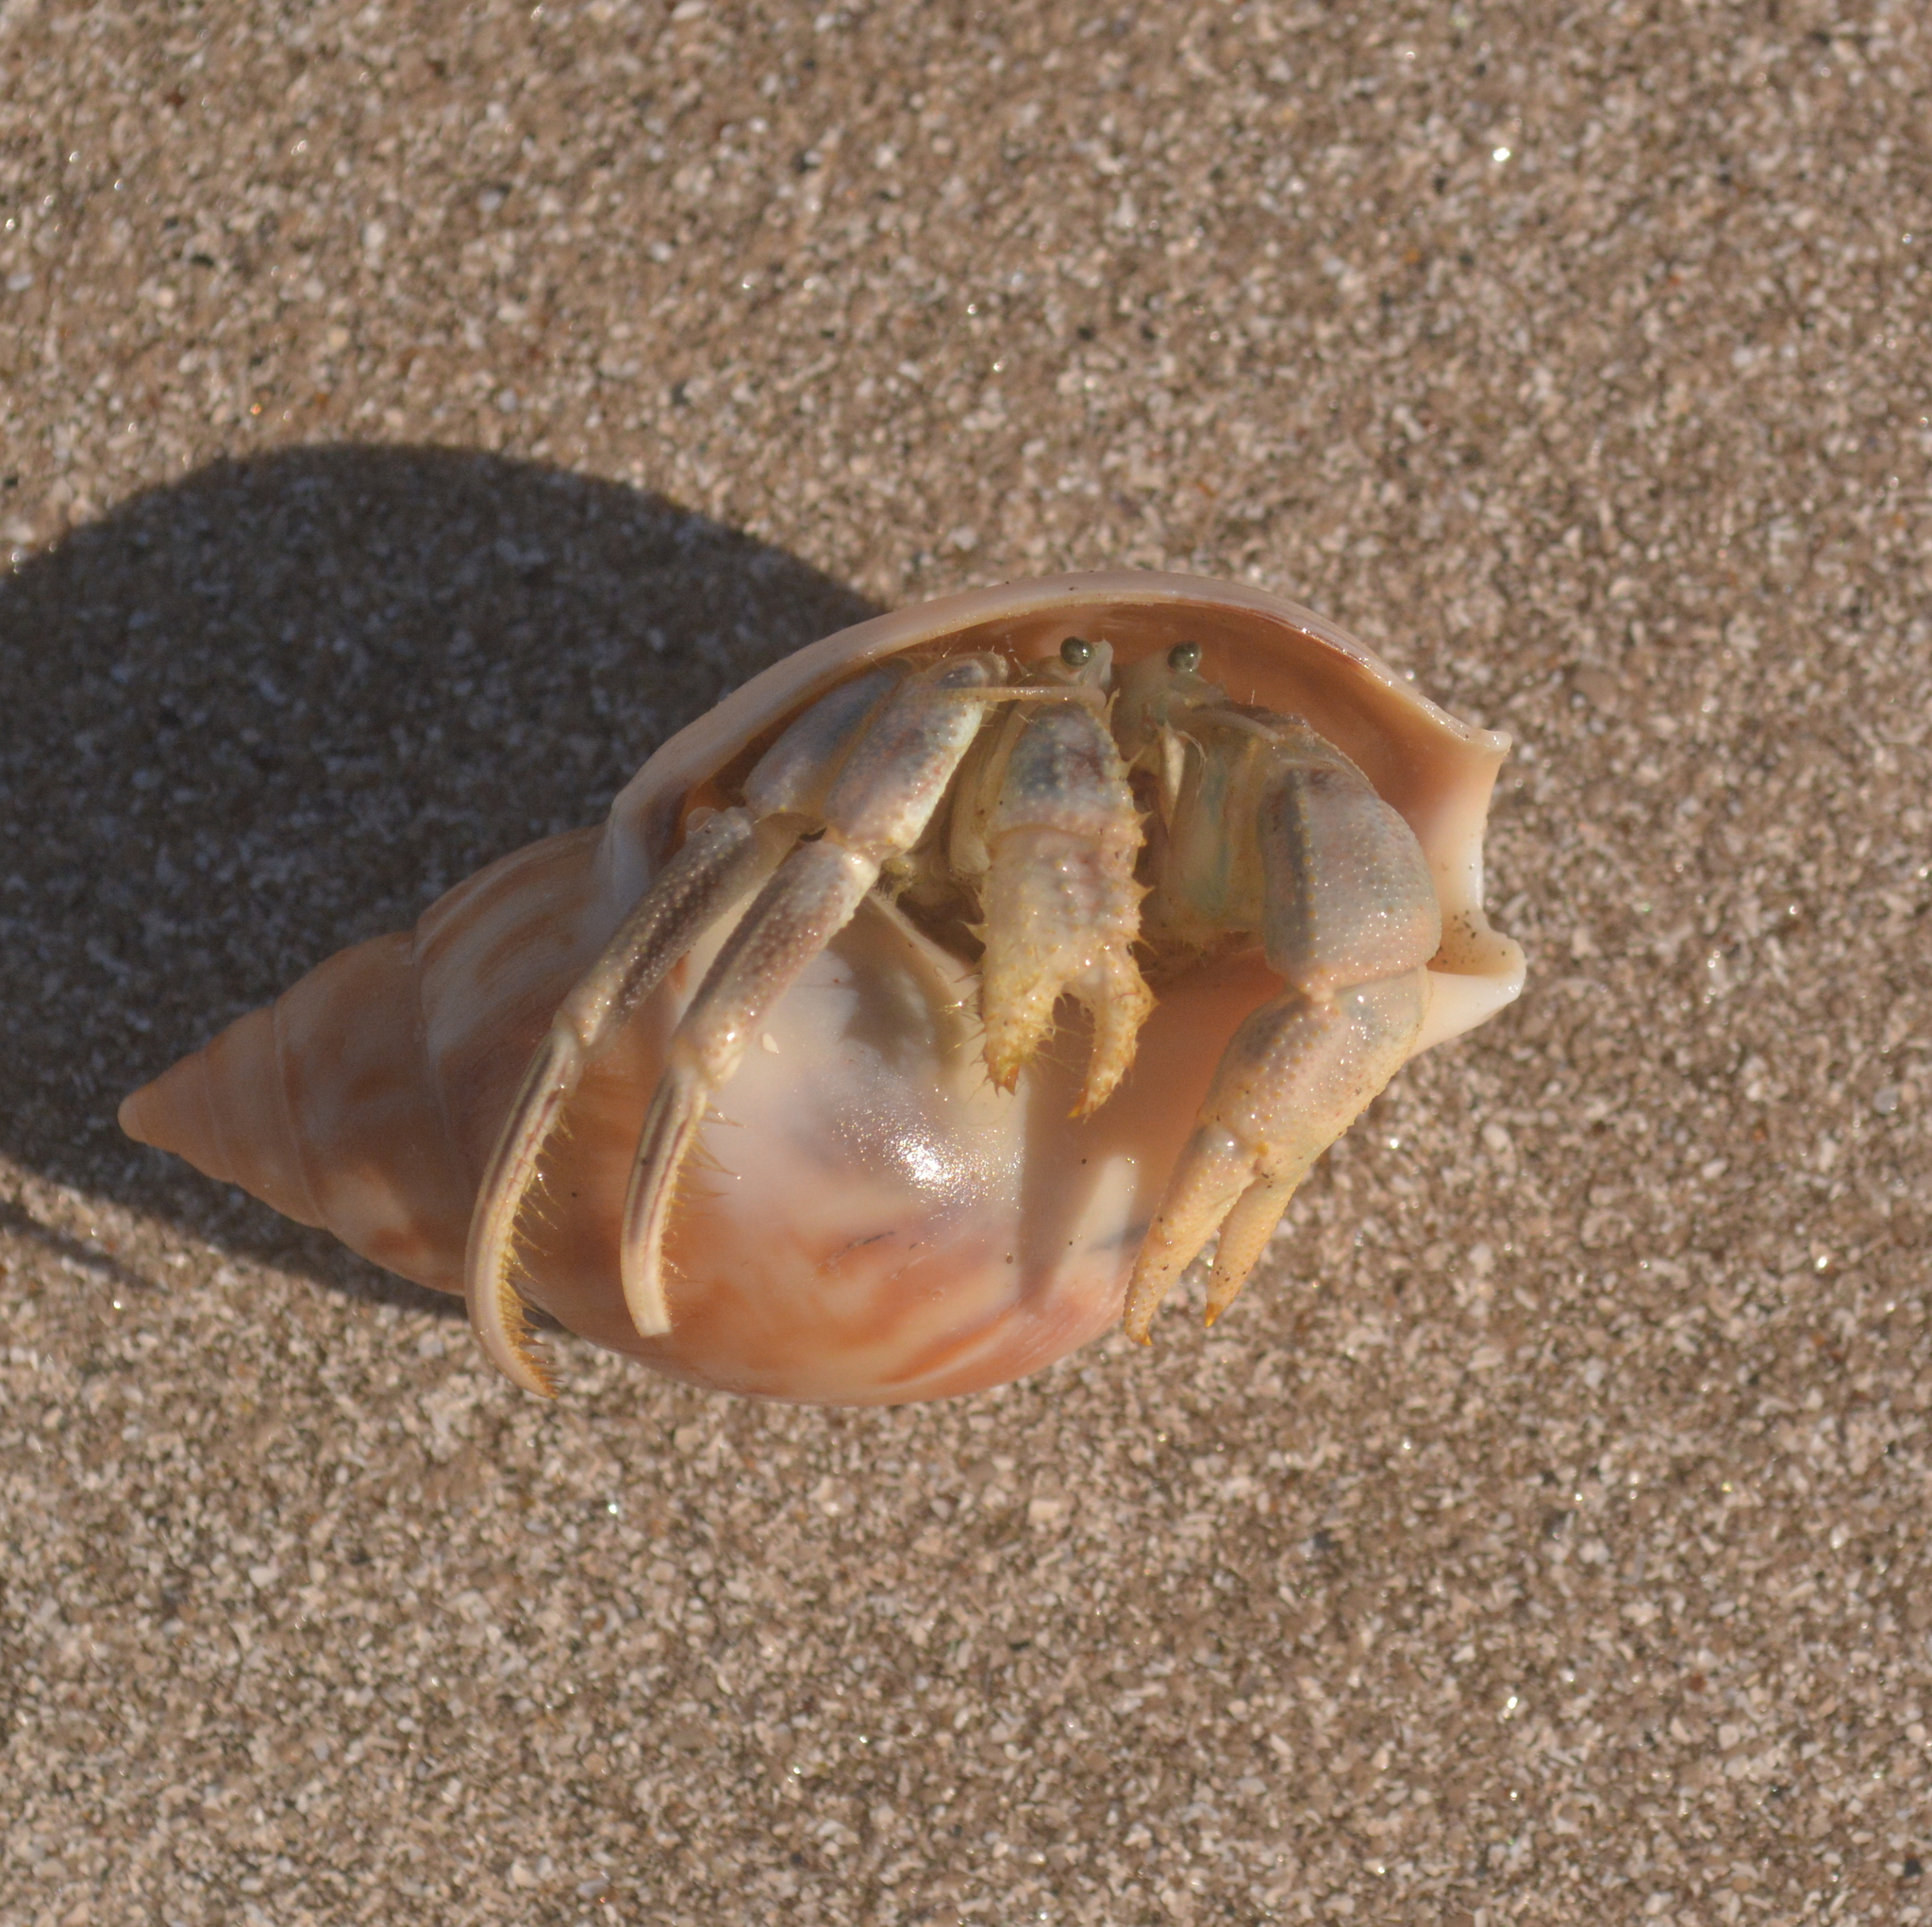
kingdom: Animalia
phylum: Arthropoda
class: Malacostraca
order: Decapoda
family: Diogenidae
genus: Loxopagurus
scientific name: Loxopagurus loxochelis
